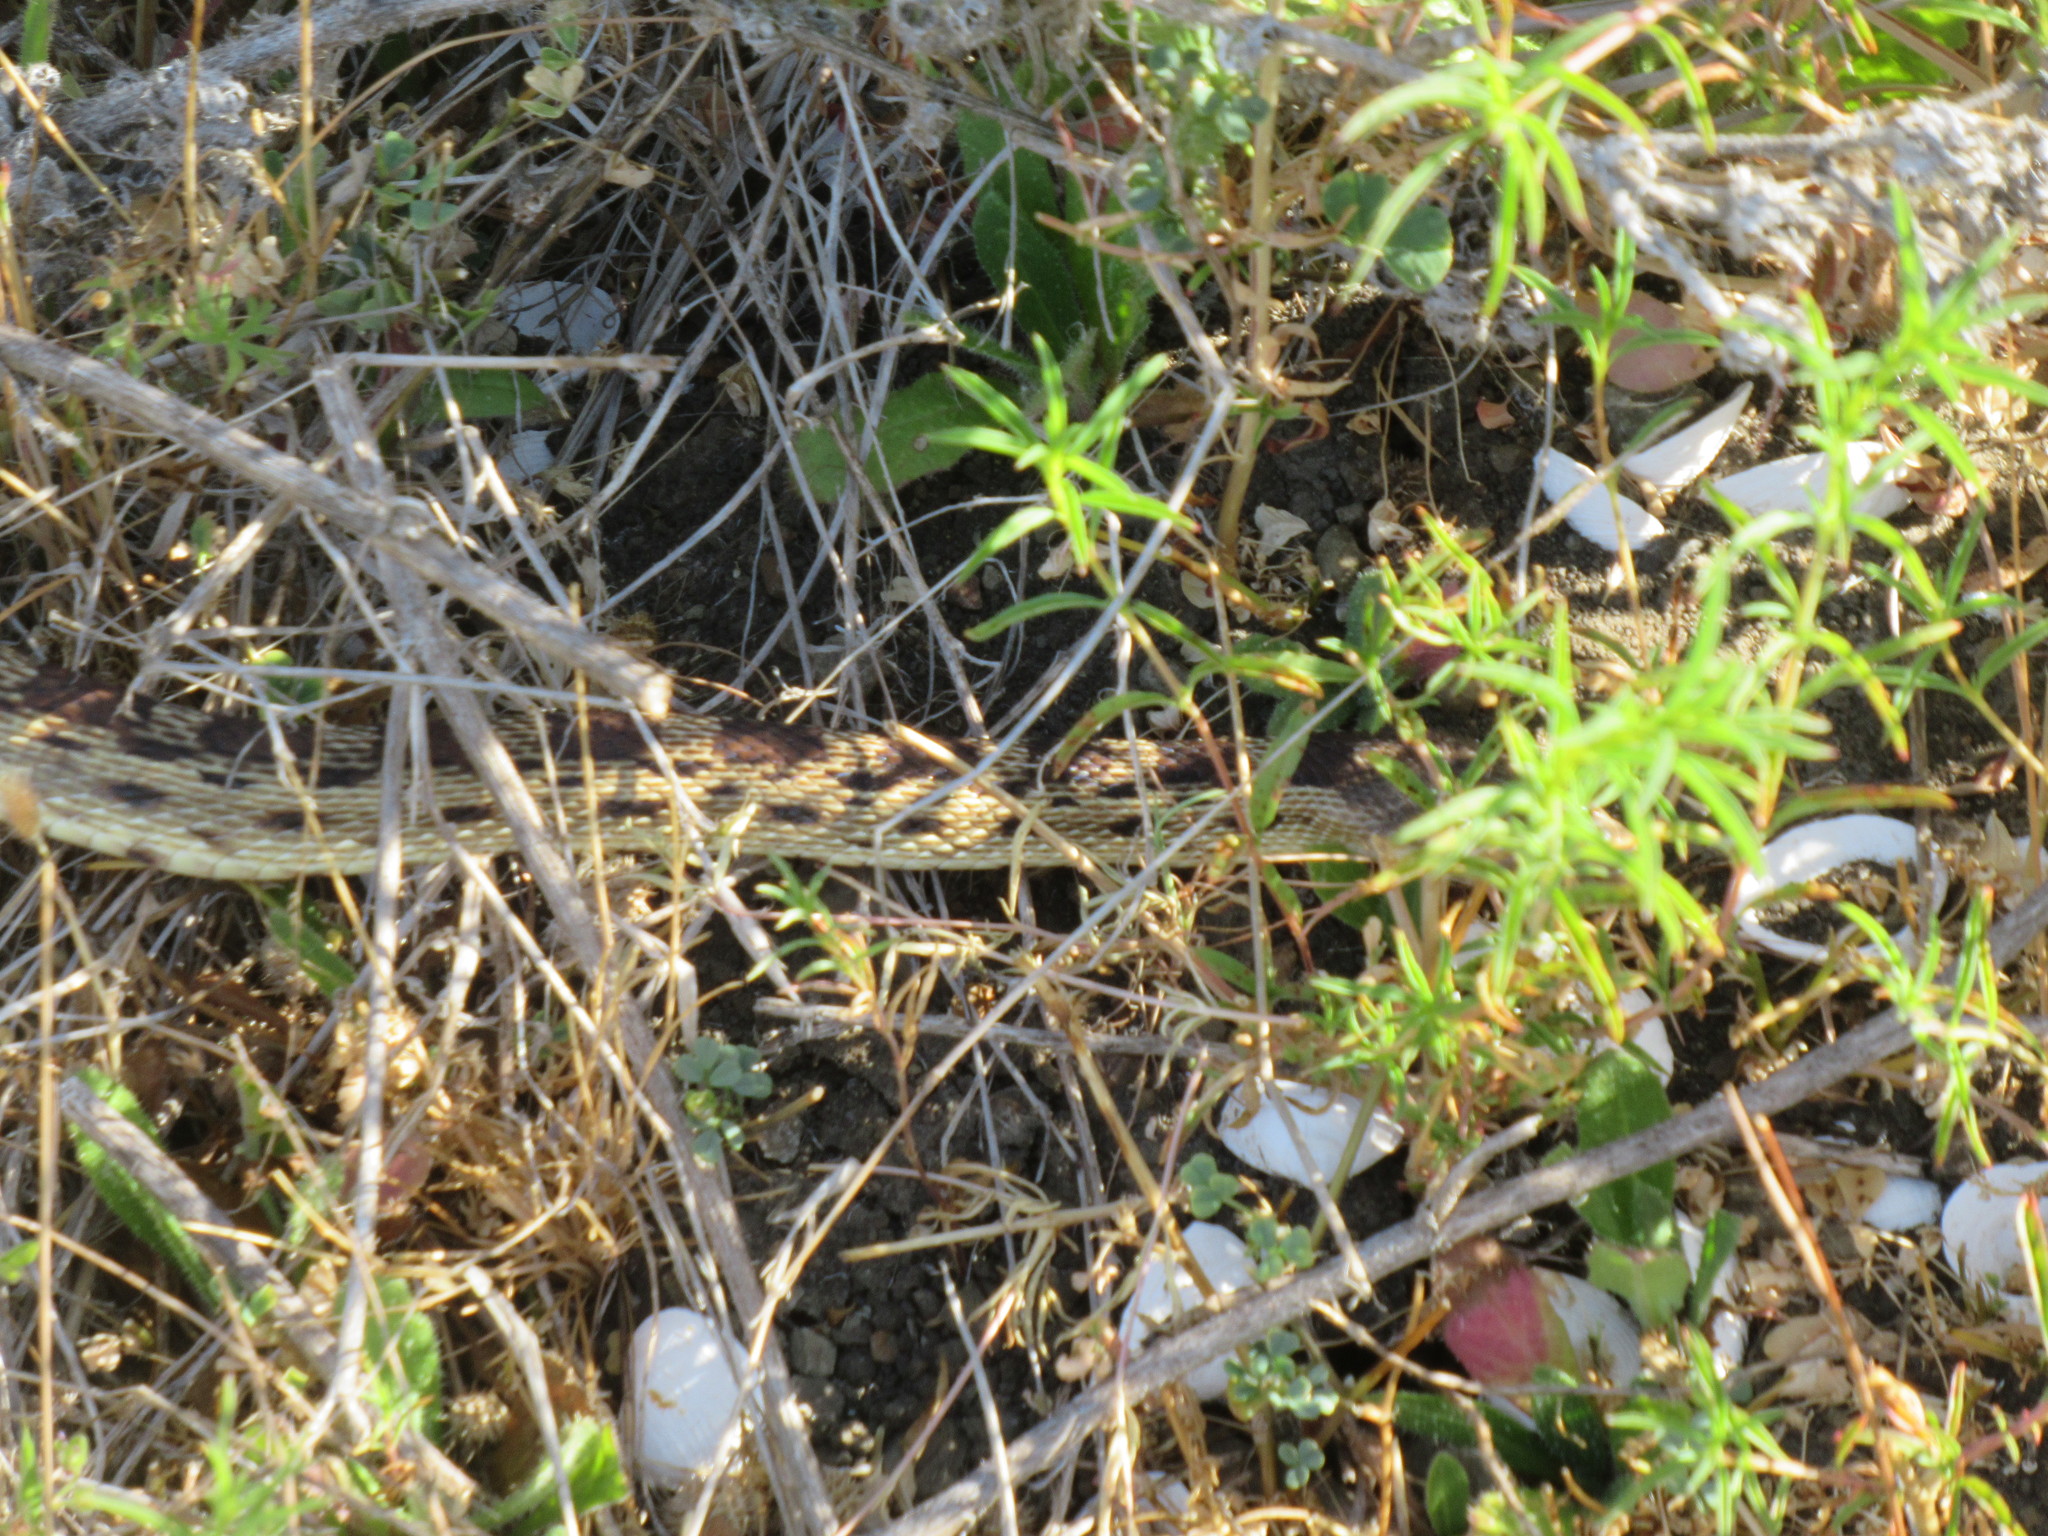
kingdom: Animalia
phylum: Chordata
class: Squamata
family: Colubridae
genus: Pituophis
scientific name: Pituophis catenifer
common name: Gopher snake
